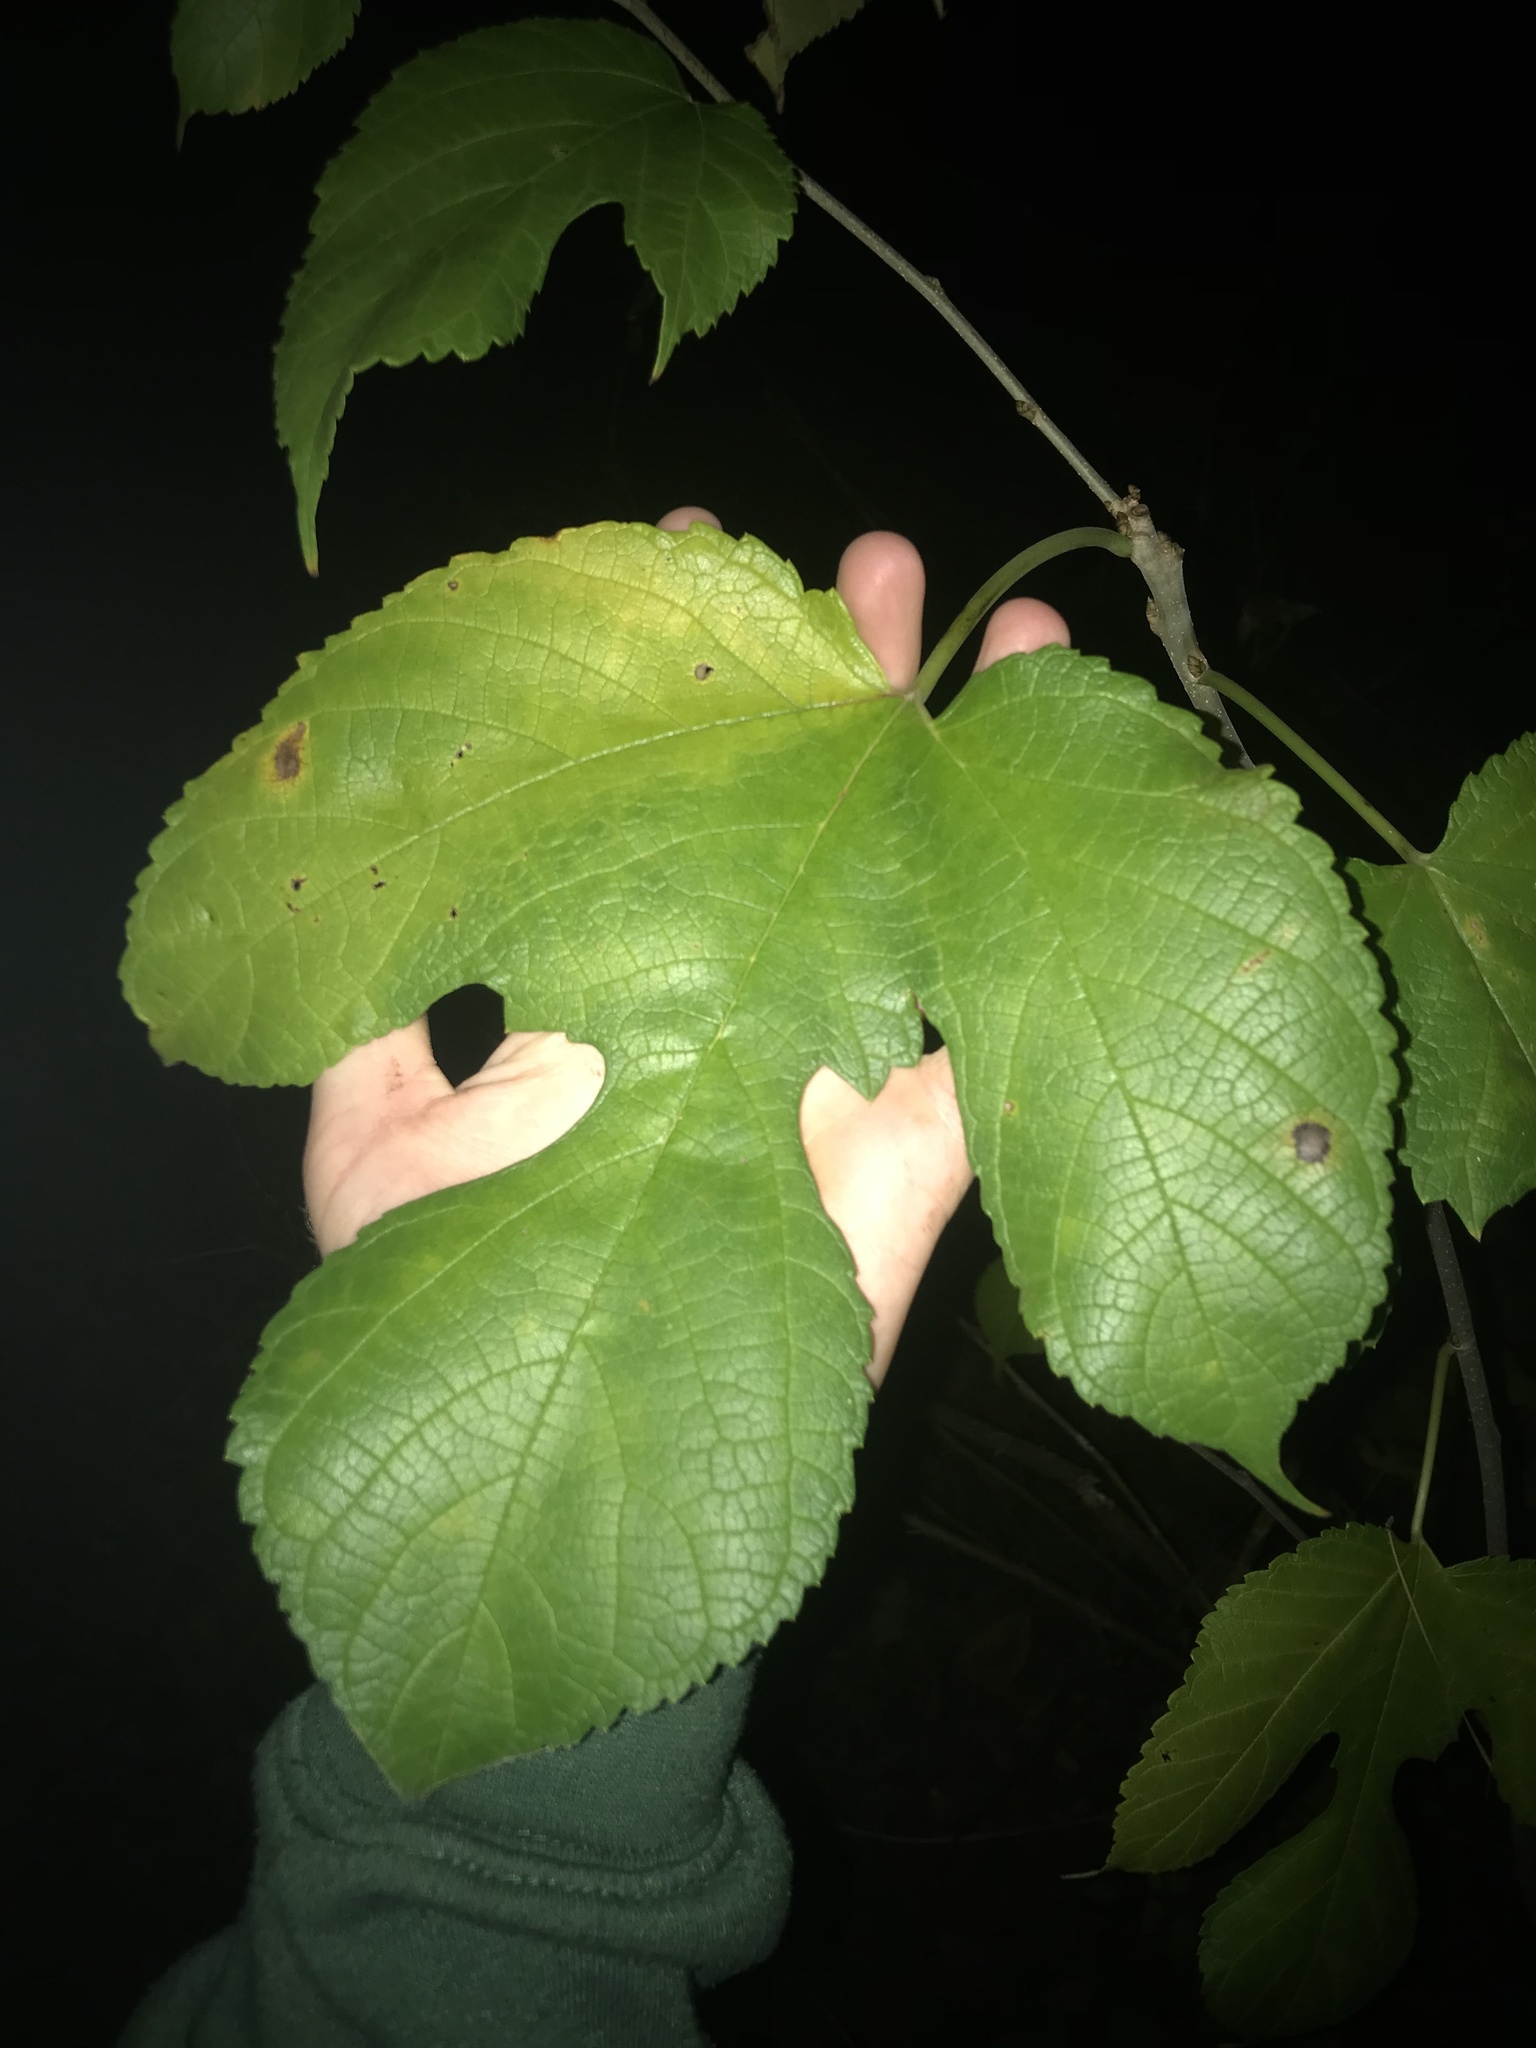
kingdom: Plantae
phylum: Tracheophyta
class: Magnoliopsida
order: Rosales
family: Moraceae
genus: Morus
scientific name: Morus rubra
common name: Red mulberry
